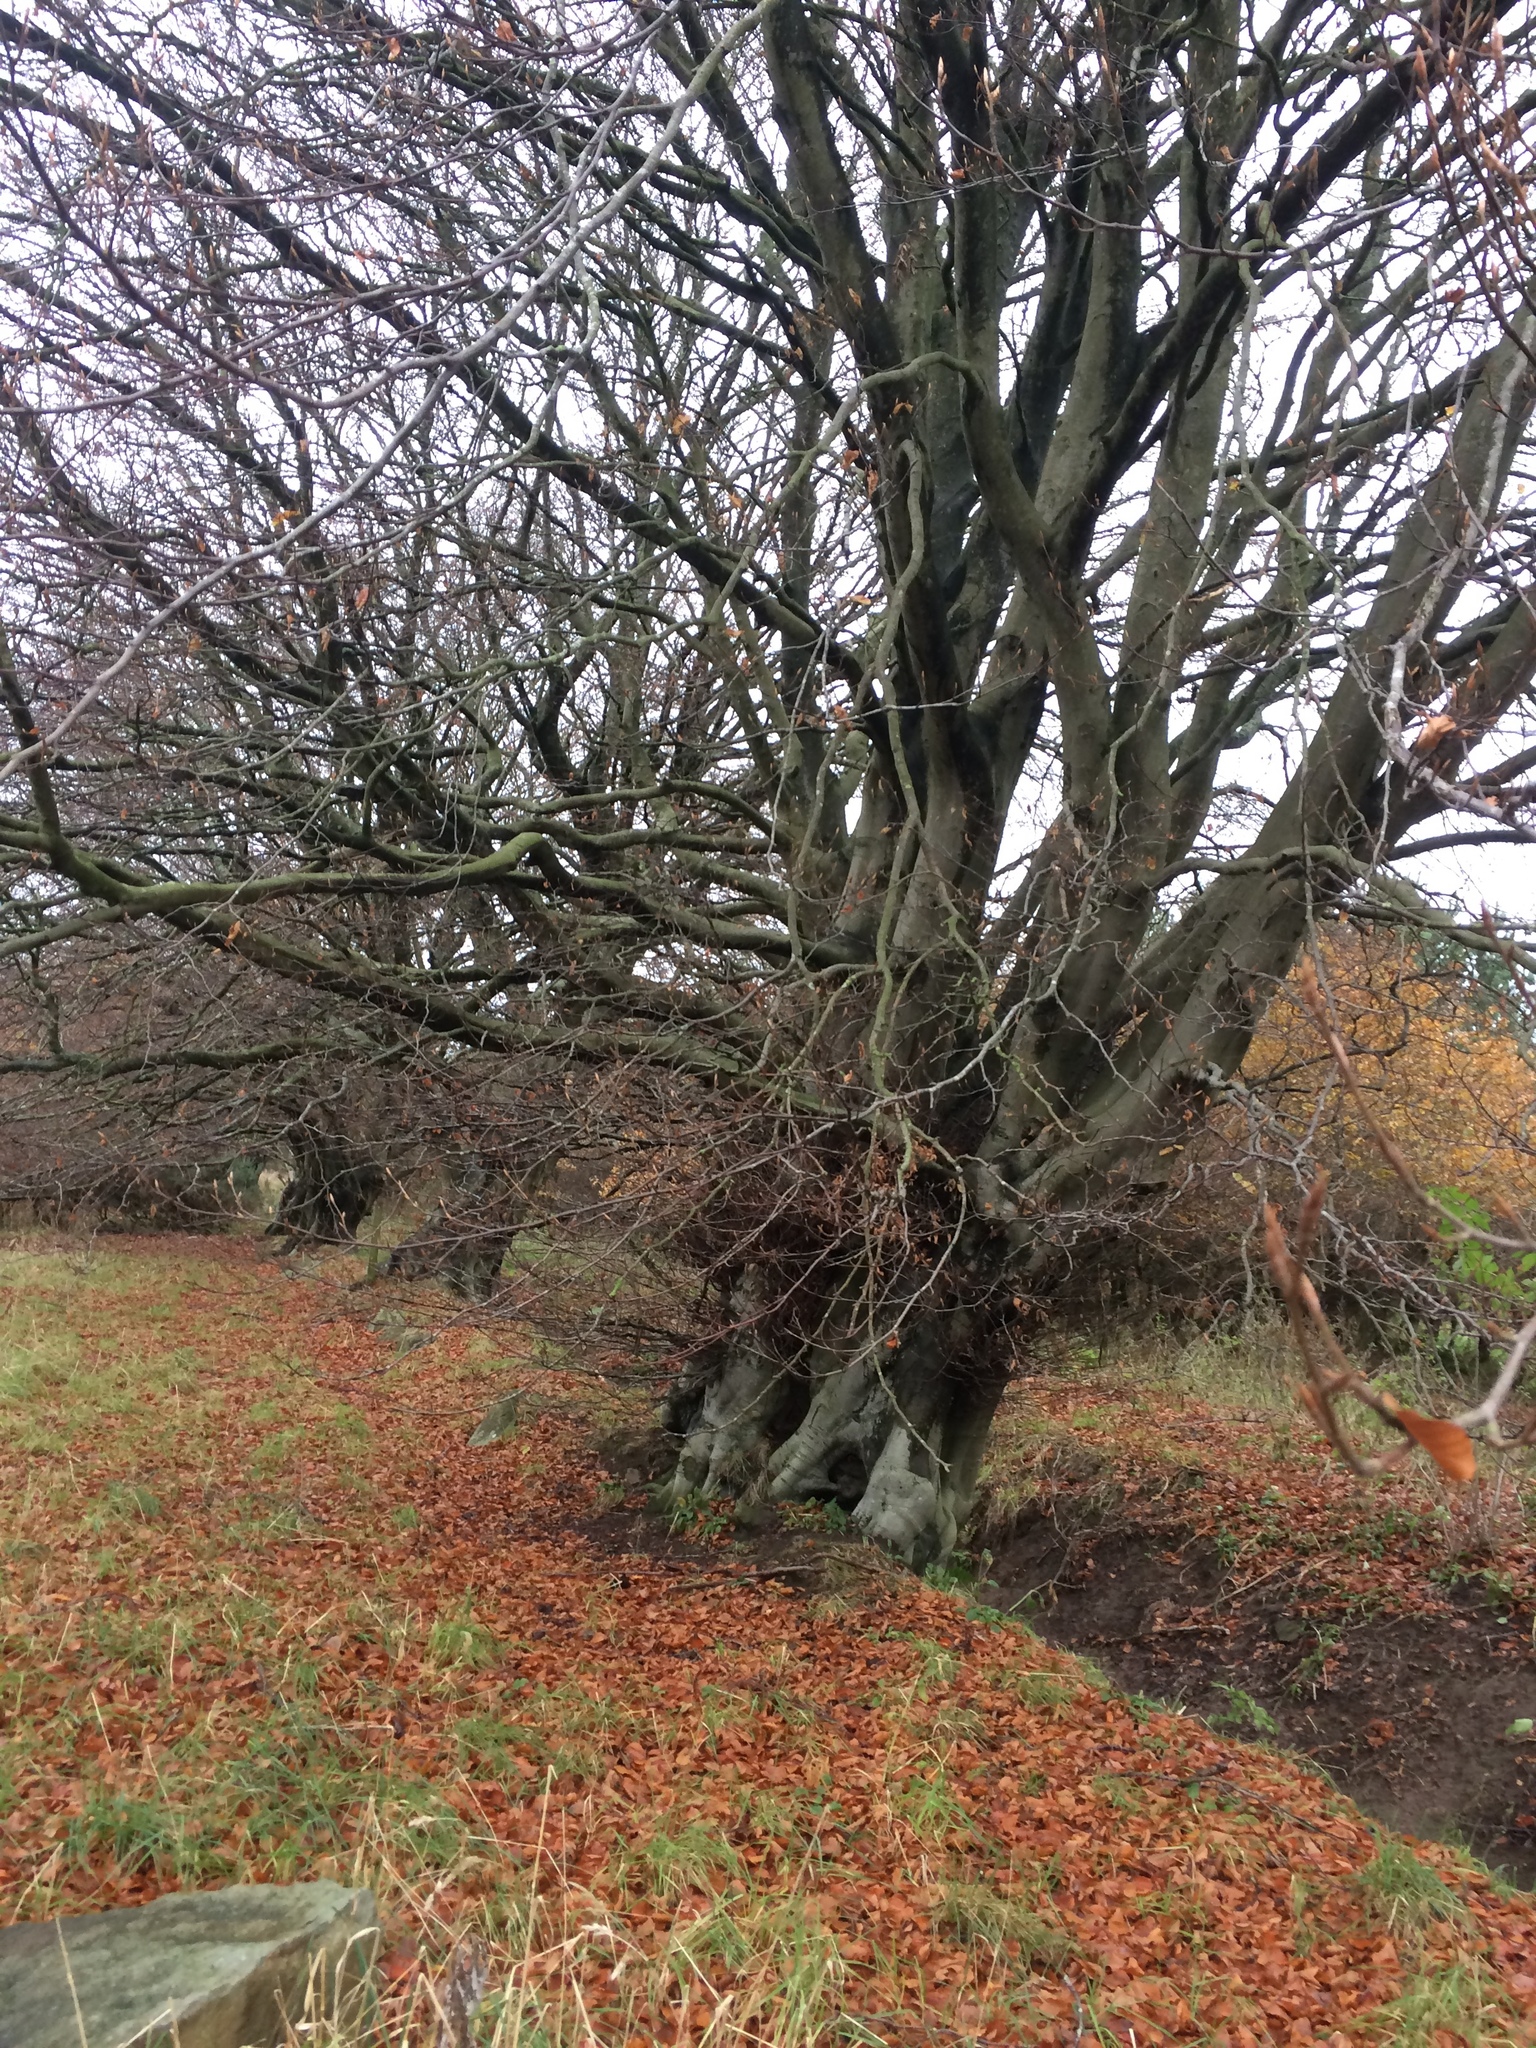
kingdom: Plantae
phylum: Tracheophyta
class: Magnoliopsida
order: Fagales
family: Fagaceae
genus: Fagus
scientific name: Fagus sylvatica
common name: Beech
